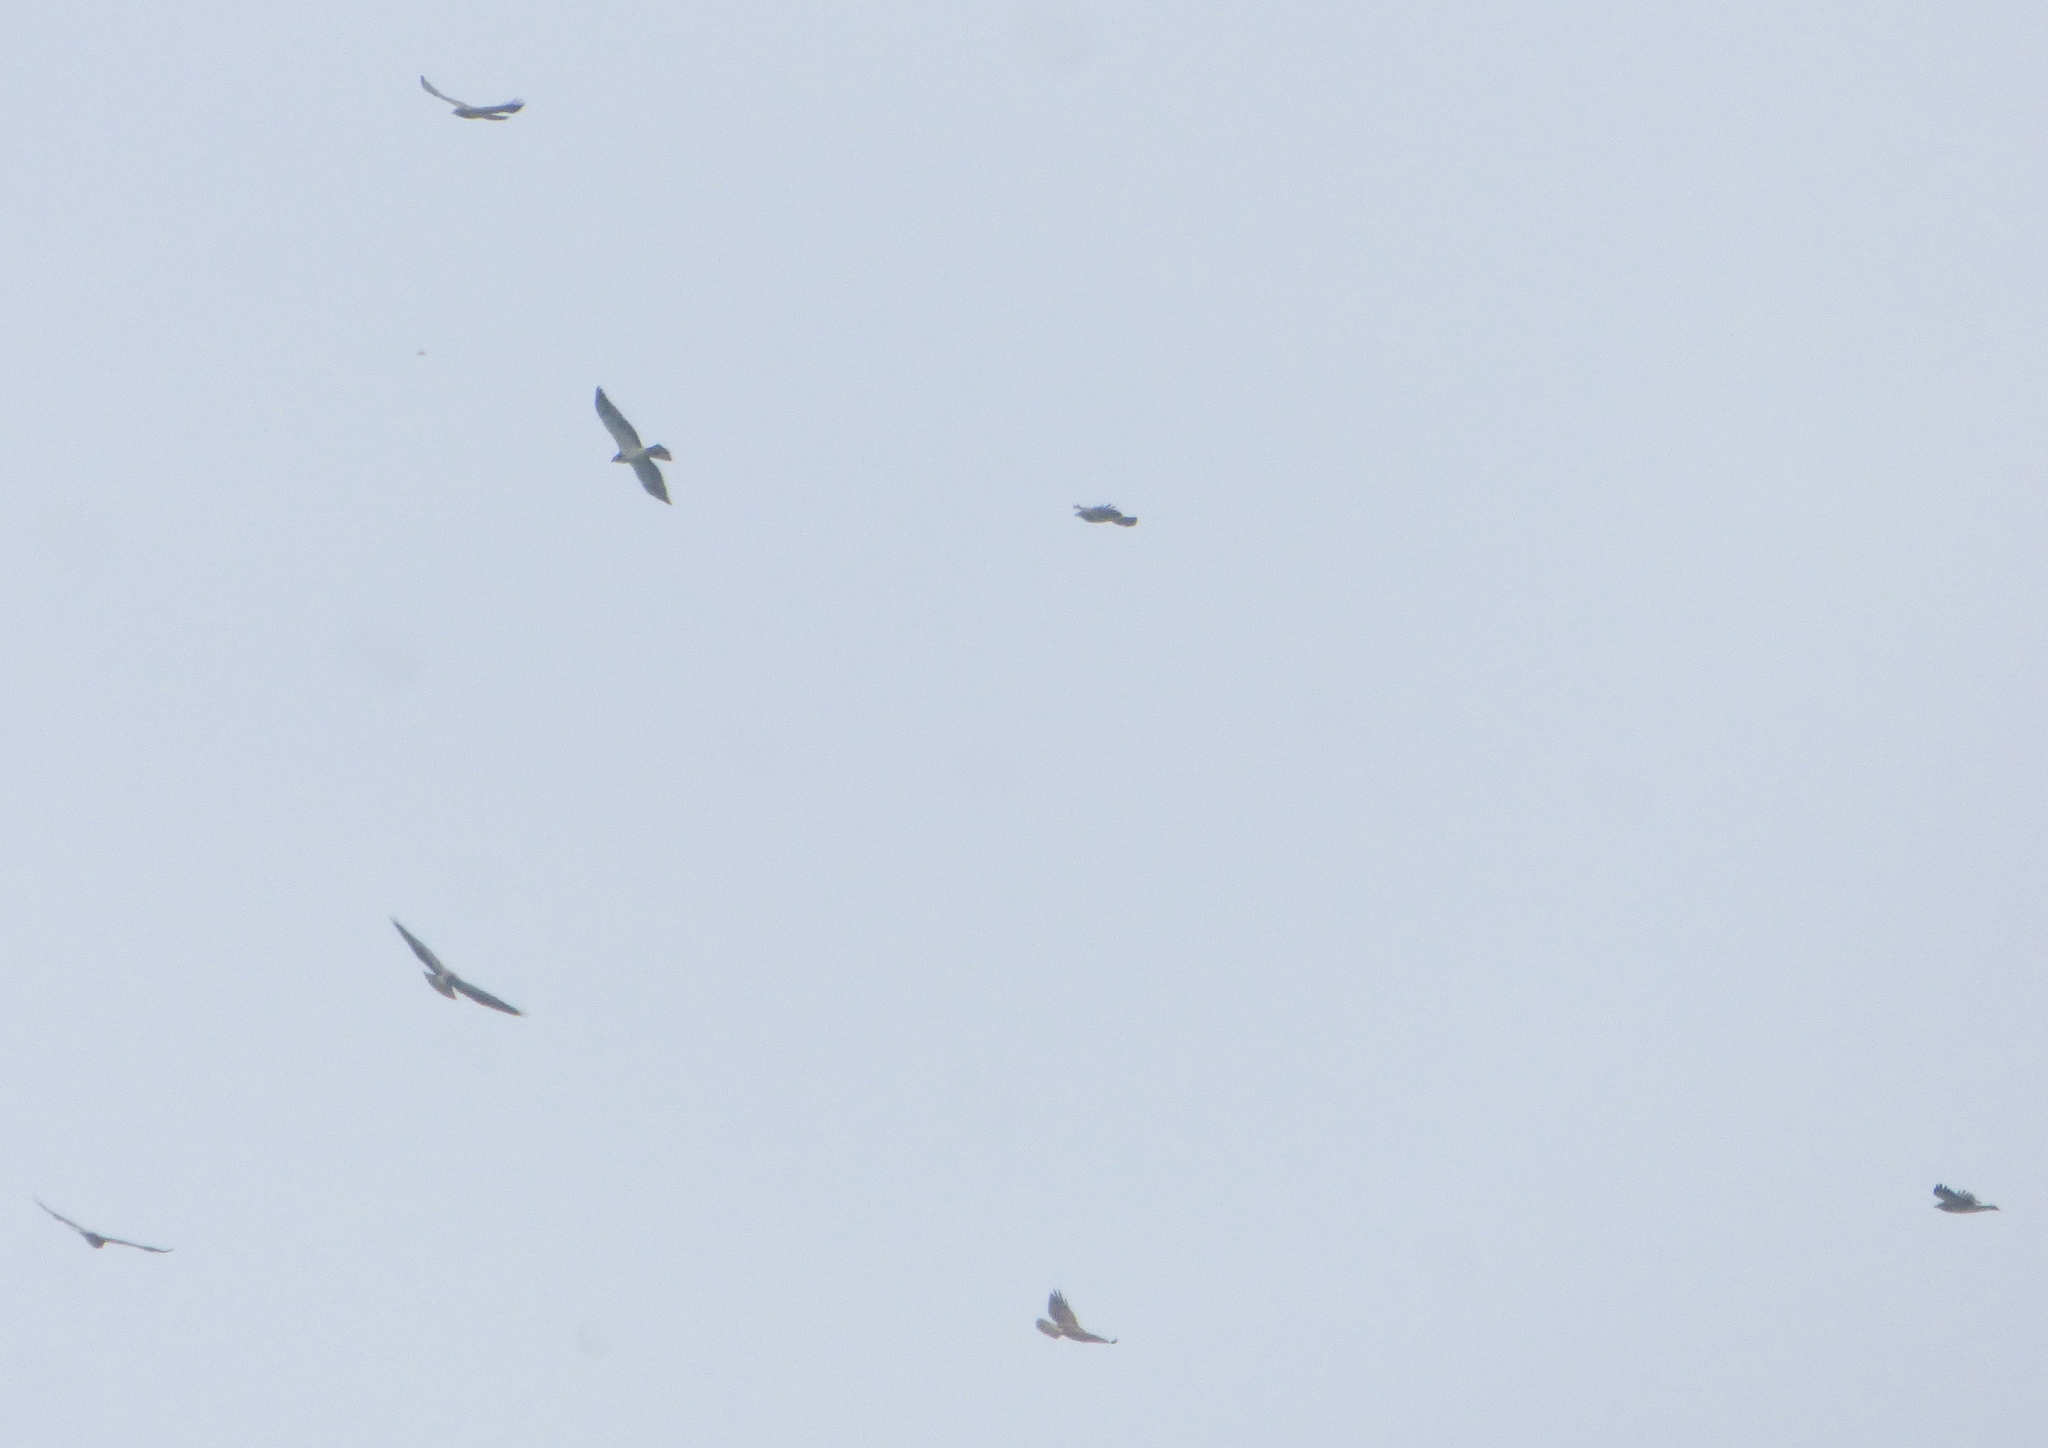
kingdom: Animalia
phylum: Chordata
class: Aves
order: Accipitriformes
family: Accipitridae
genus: Buteo
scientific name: Buteo swainsoni
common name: Swainson's hawk
